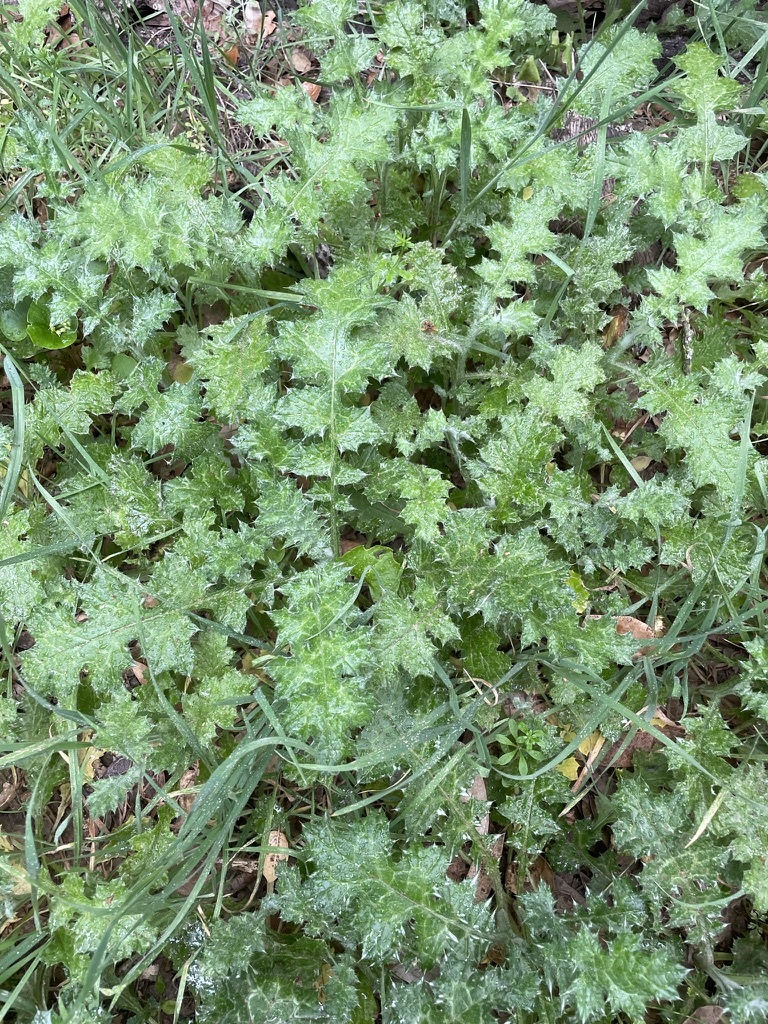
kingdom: Plantae
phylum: Tracheophyta
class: Magnoliopsida
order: Asterales
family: Asteraceae
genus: Carduus
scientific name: Carduus pycnocephalus
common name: Plymouth thistle
